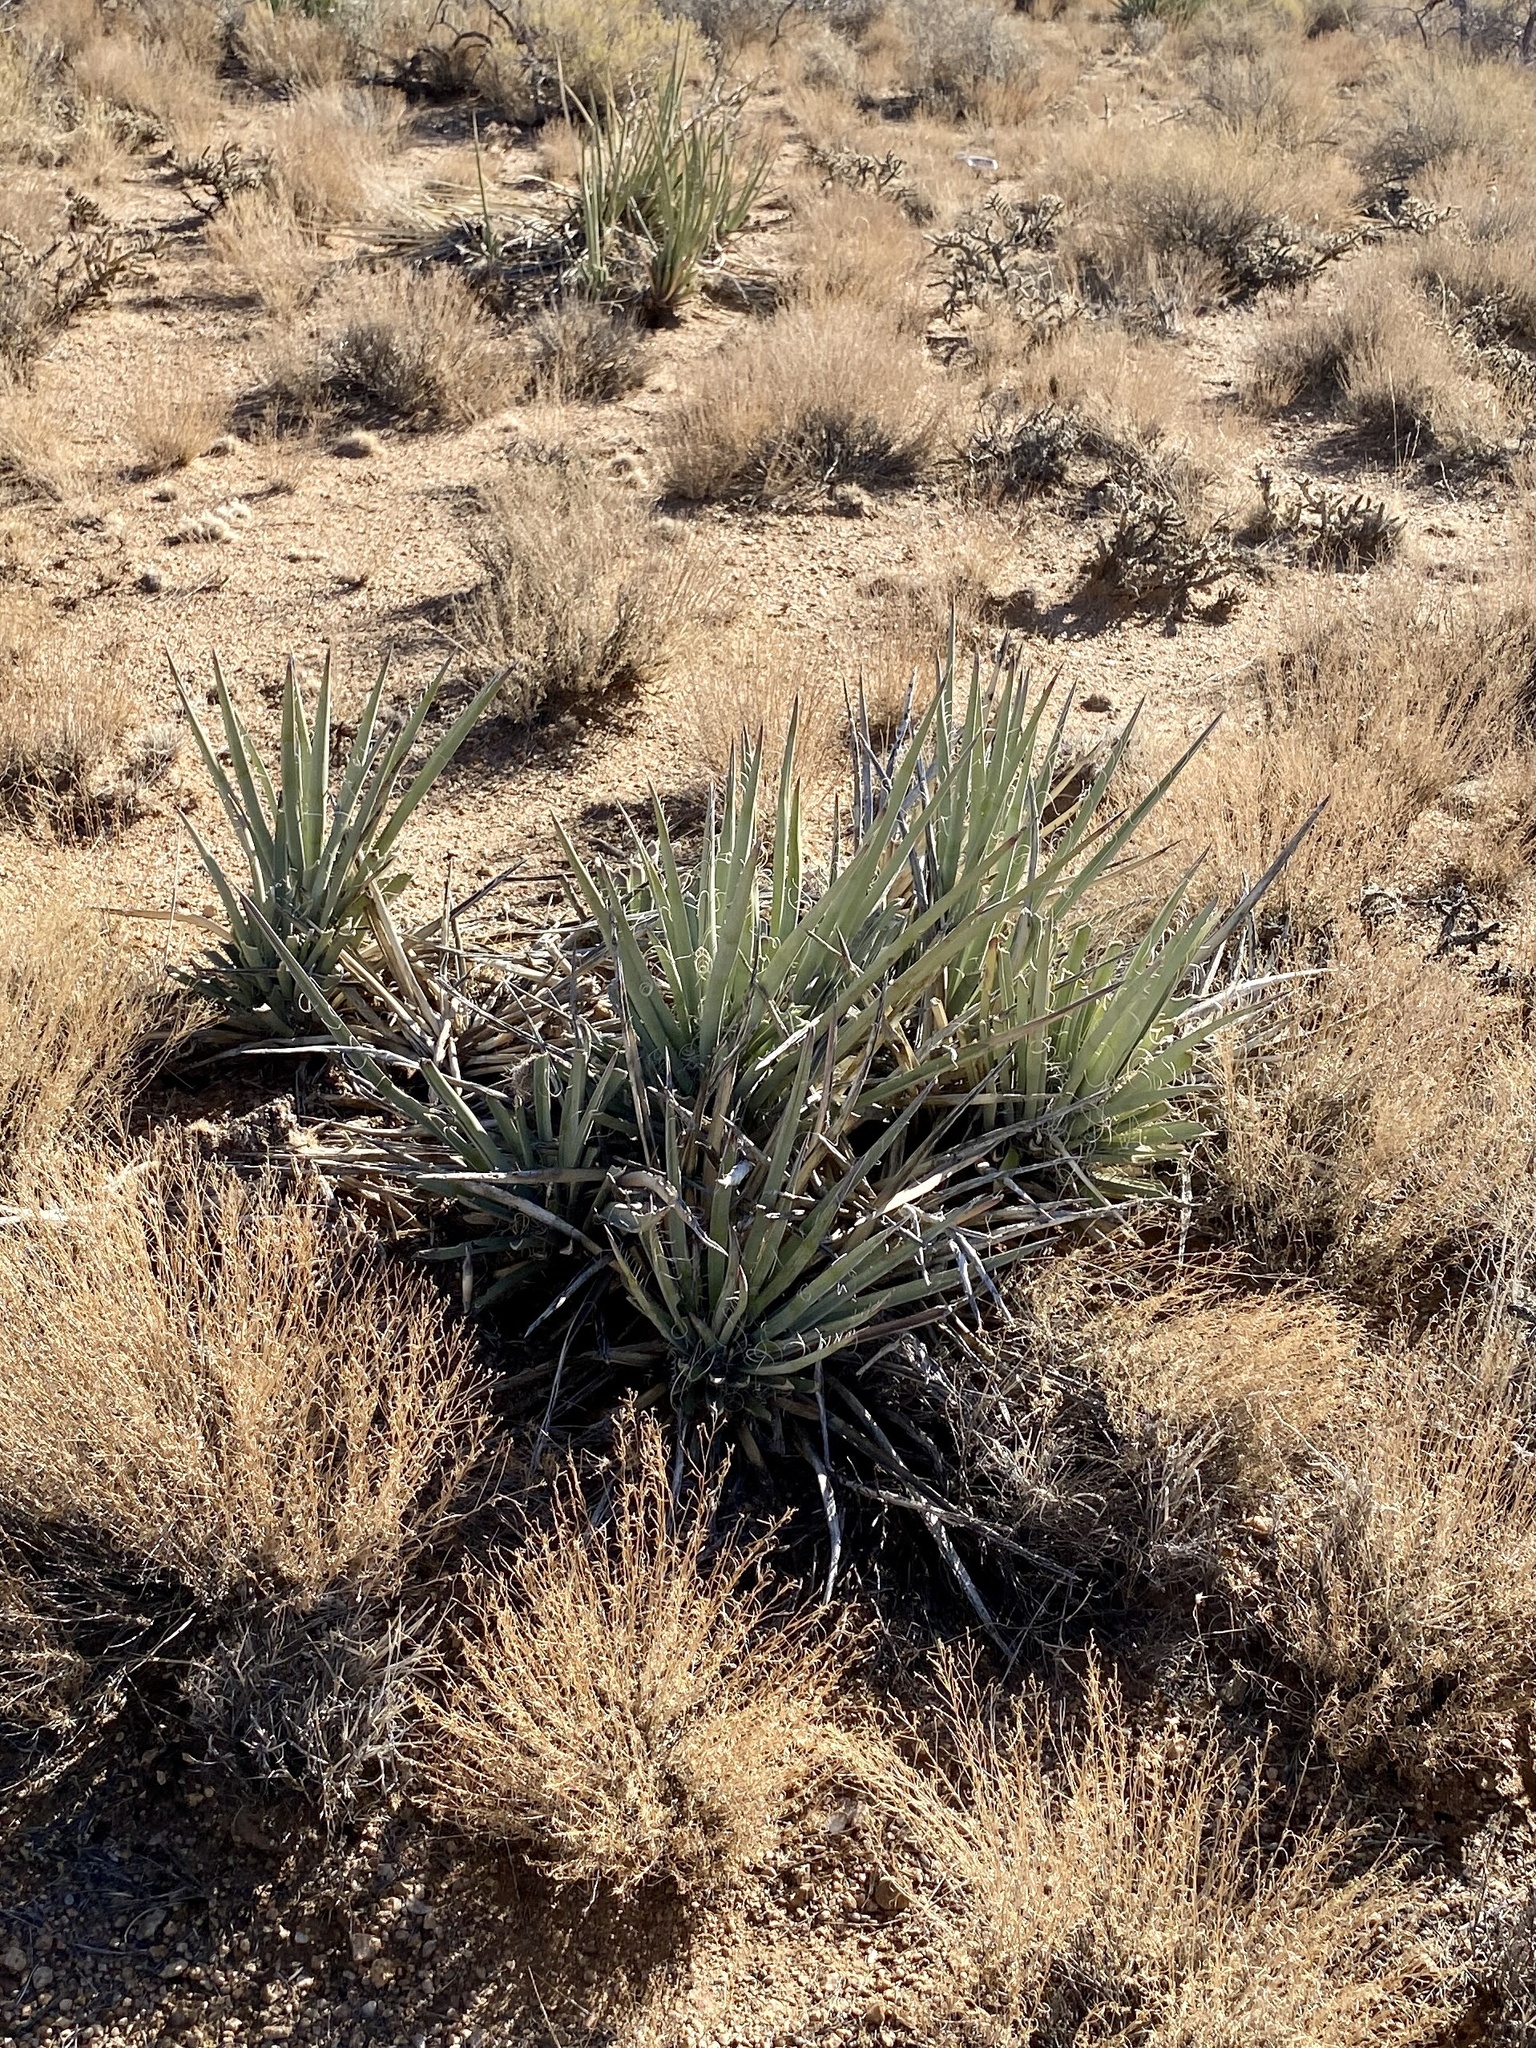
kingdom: Plantae
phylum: Tracheophyta
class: Liliopsida
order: Asparagales
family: Asparagaceae
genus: Yucca
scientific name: Yucca baccata
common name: Banana yucca
